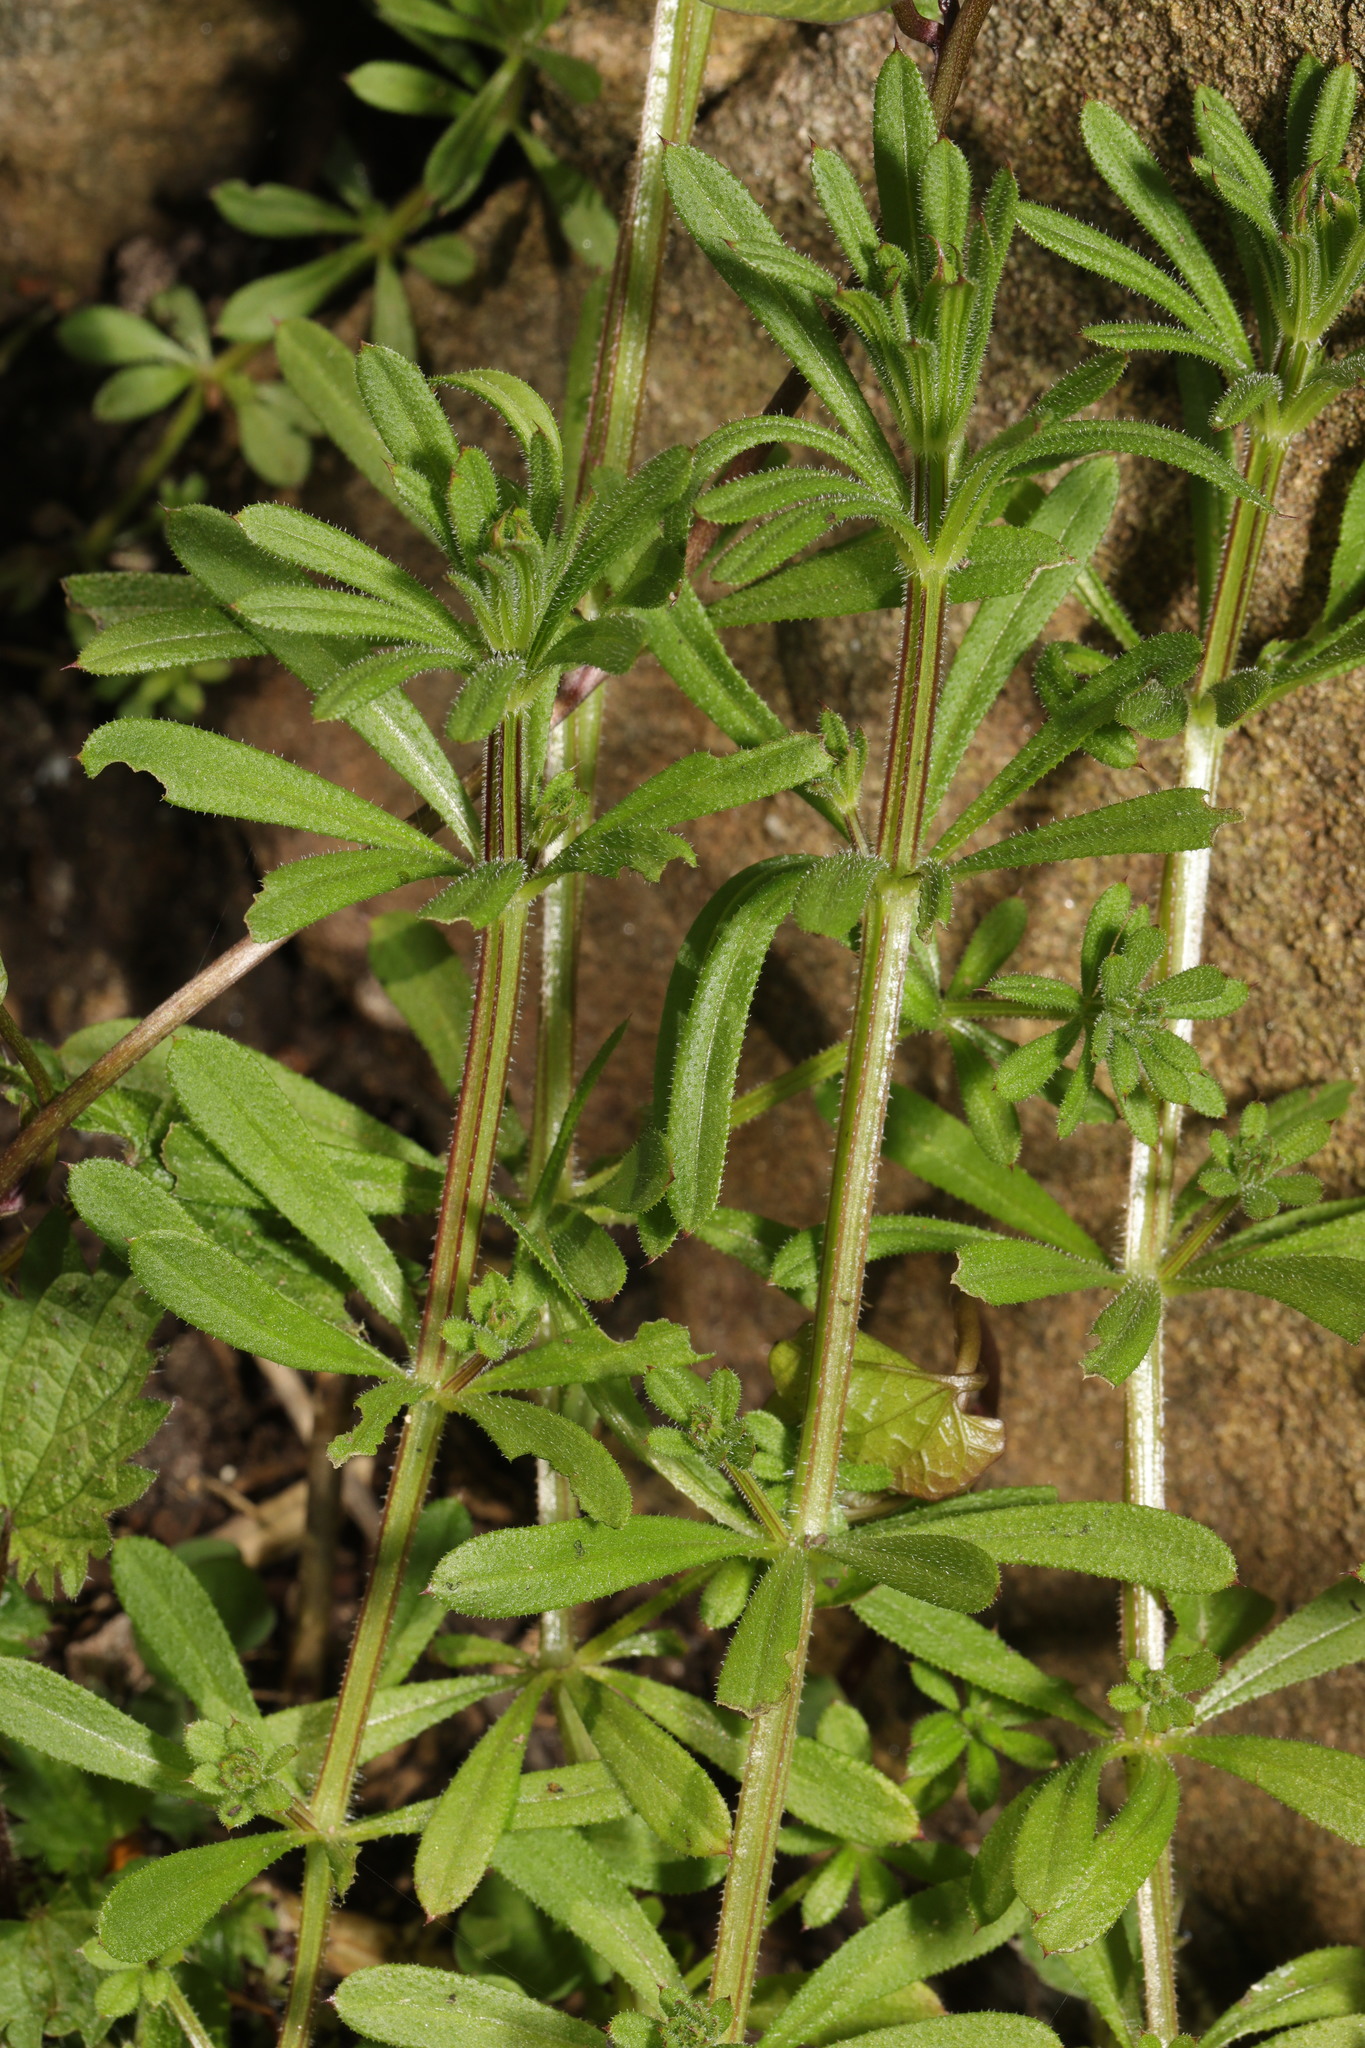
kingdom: Plantae
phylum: Tracheophyta
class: Magnoliopsida
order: Gentianales
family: Rubiaceae
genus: Galium
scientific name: Galium aparine
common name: Cleavers
